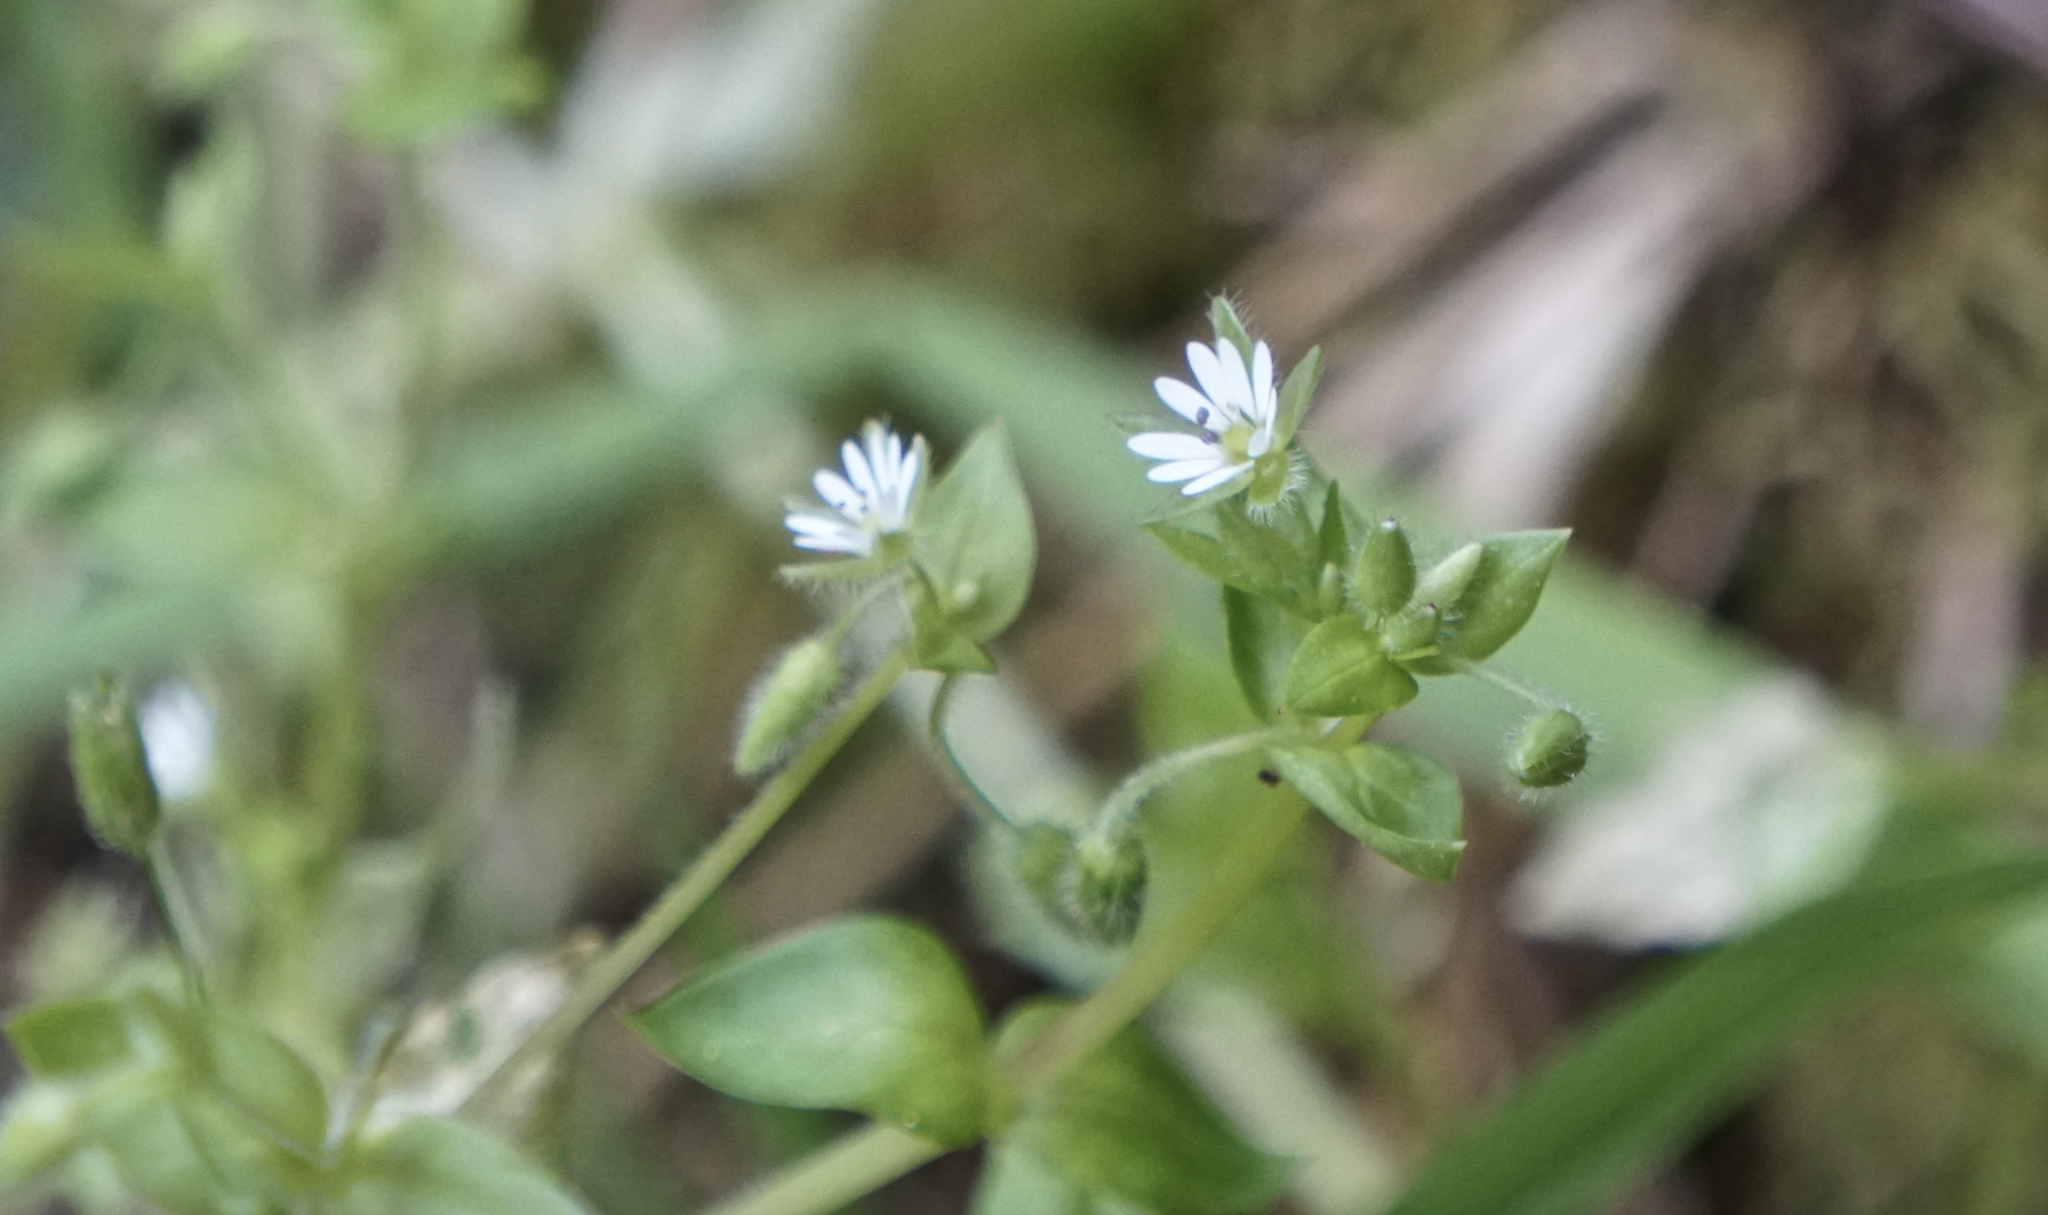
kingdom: Plantae
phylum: Tracheophyta
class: Magnoliopsida
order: Caryophyllales
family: Caryophyllaceae
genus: Stellaria
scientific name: Stellaria media
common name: Common chickweed
